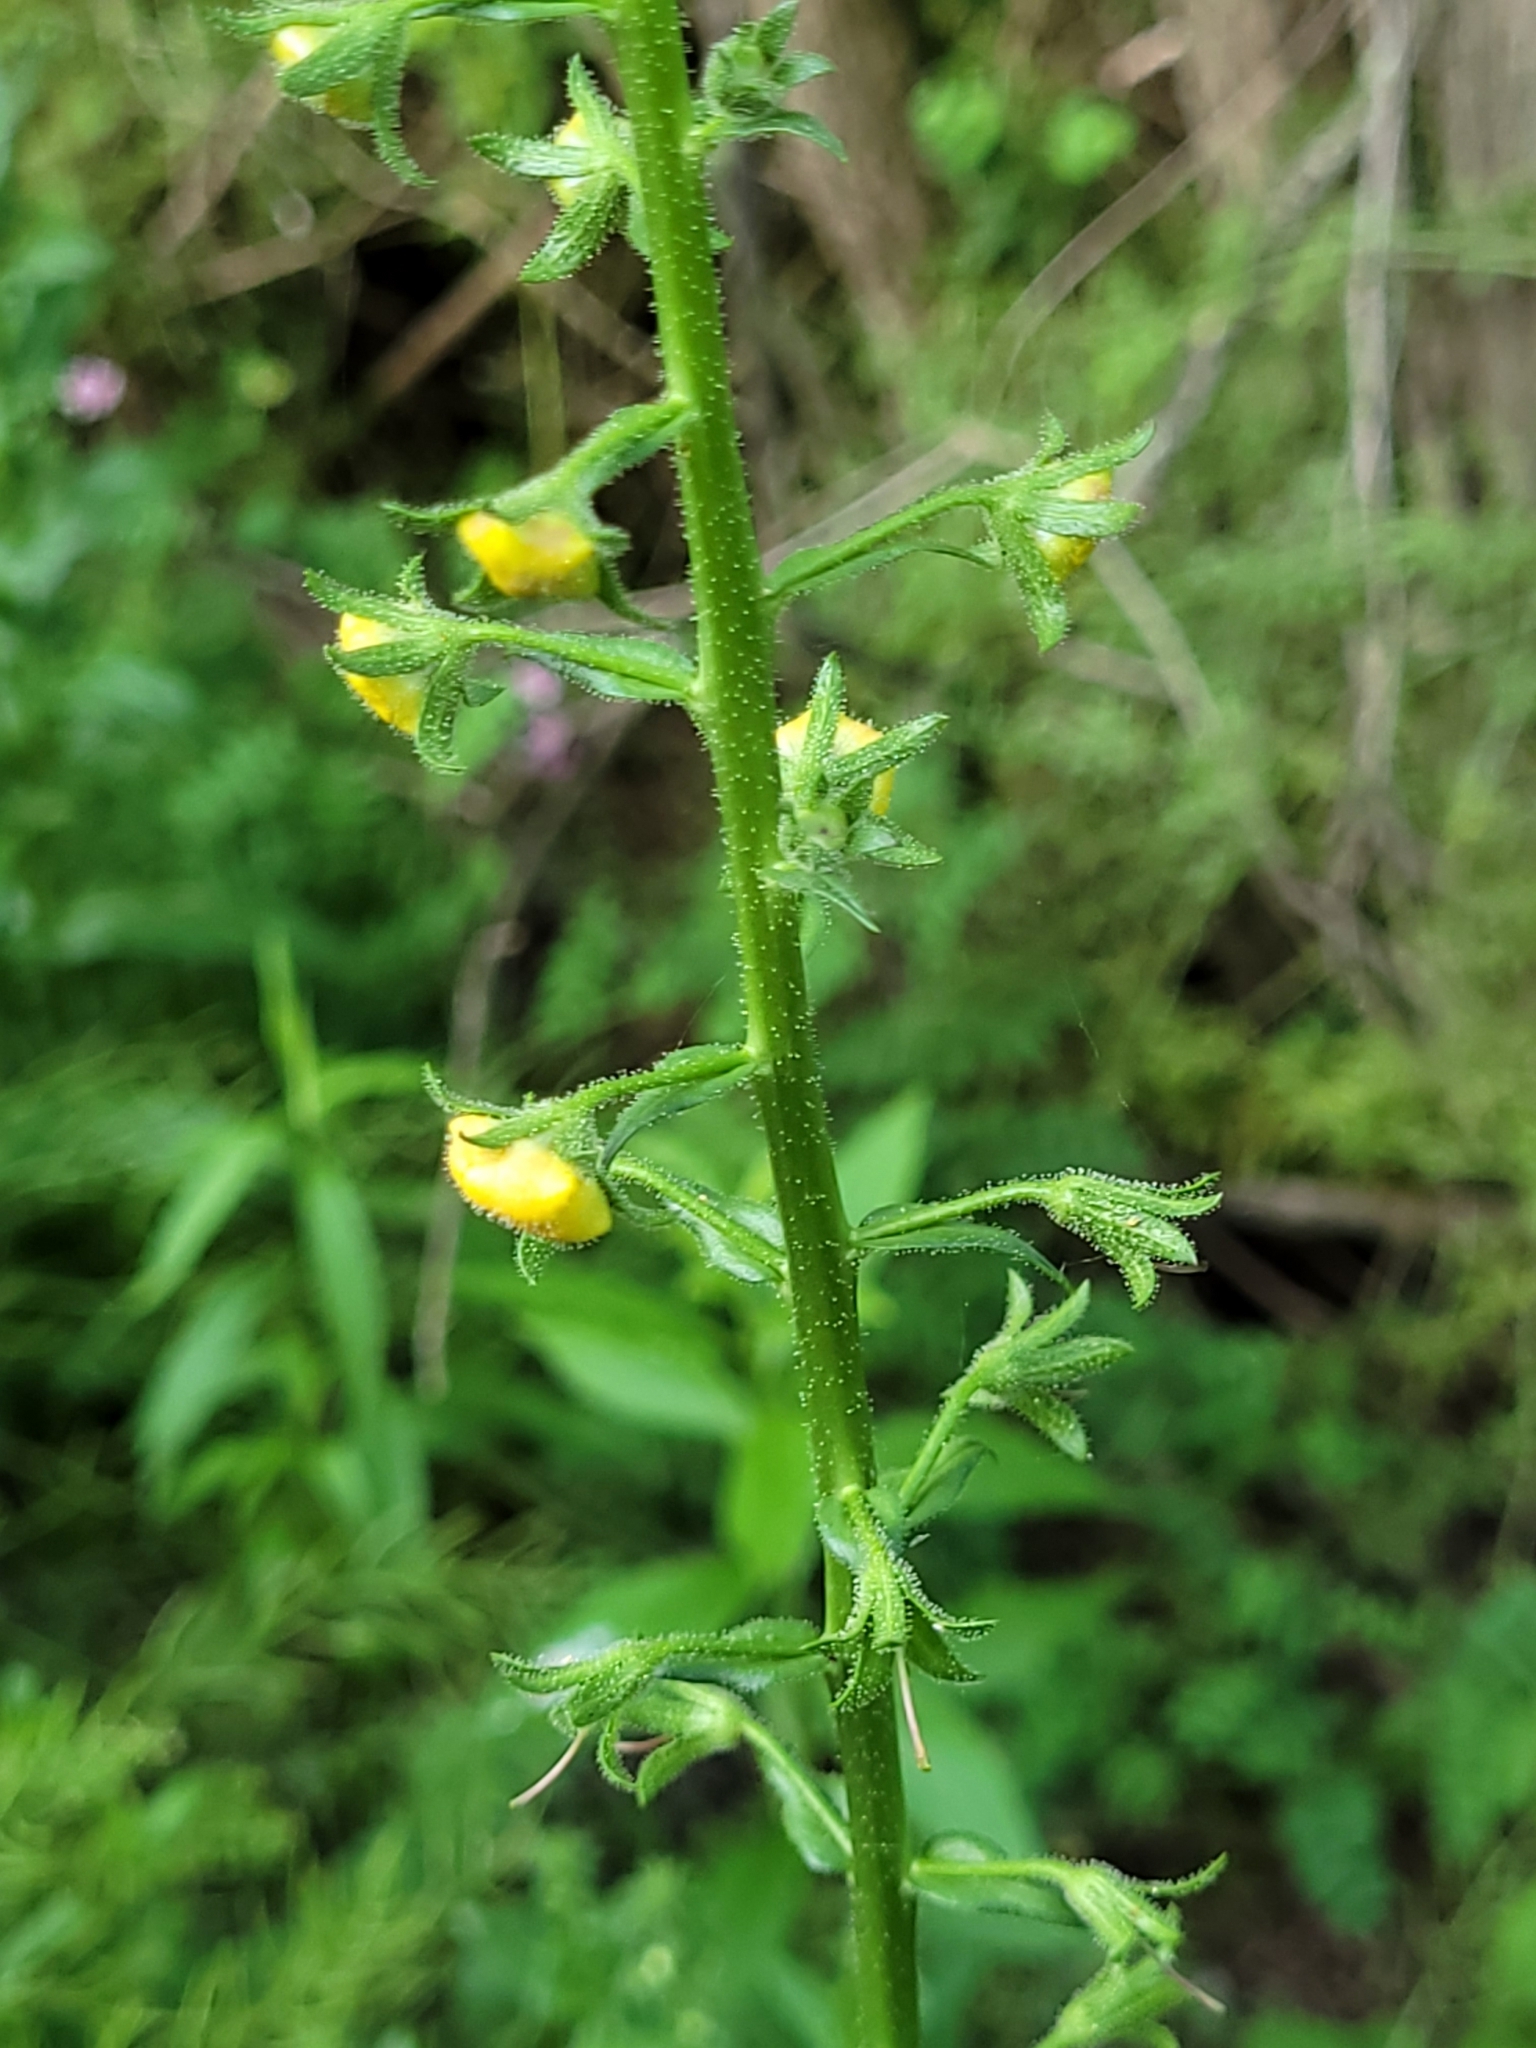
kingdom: Plantae
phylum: Tracheophyta
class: Magnoliopsida
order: Lamiales
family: Scrophulariaceae
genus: Verbascum
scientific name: Verbascum blattaria
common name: Moth mullein
